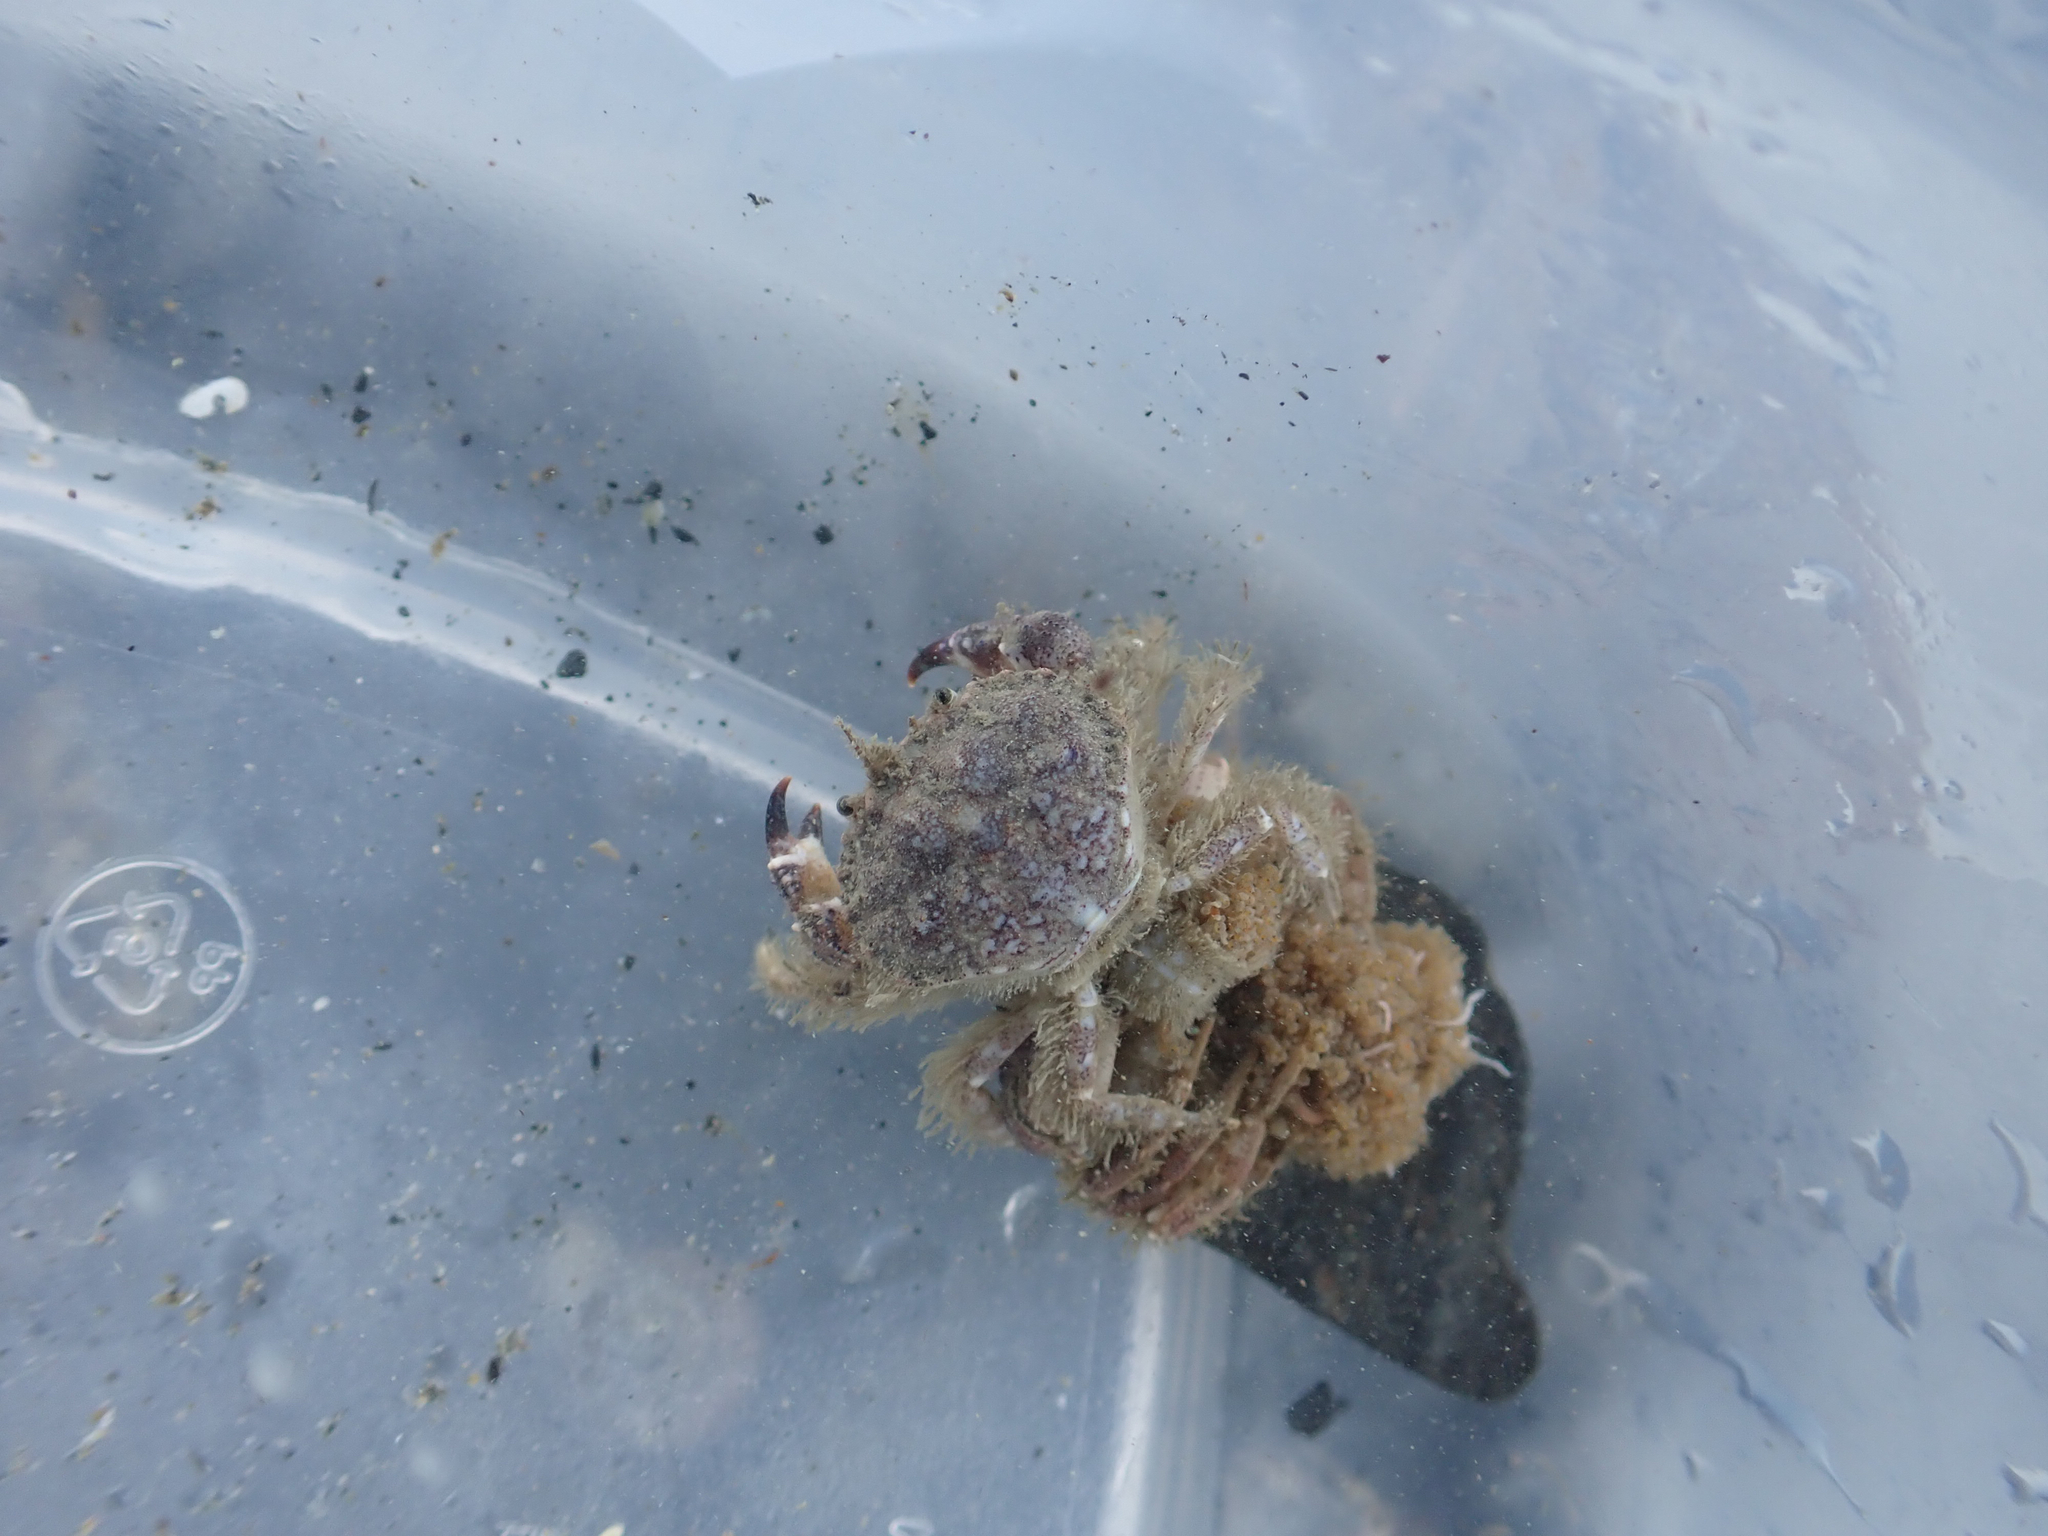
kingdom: Animalia
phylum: Arthropoda
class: Malacostraca
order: Decapoda
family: Cancridae
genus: Glebocarcinus
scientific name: Glebocarcinus oregonensis
